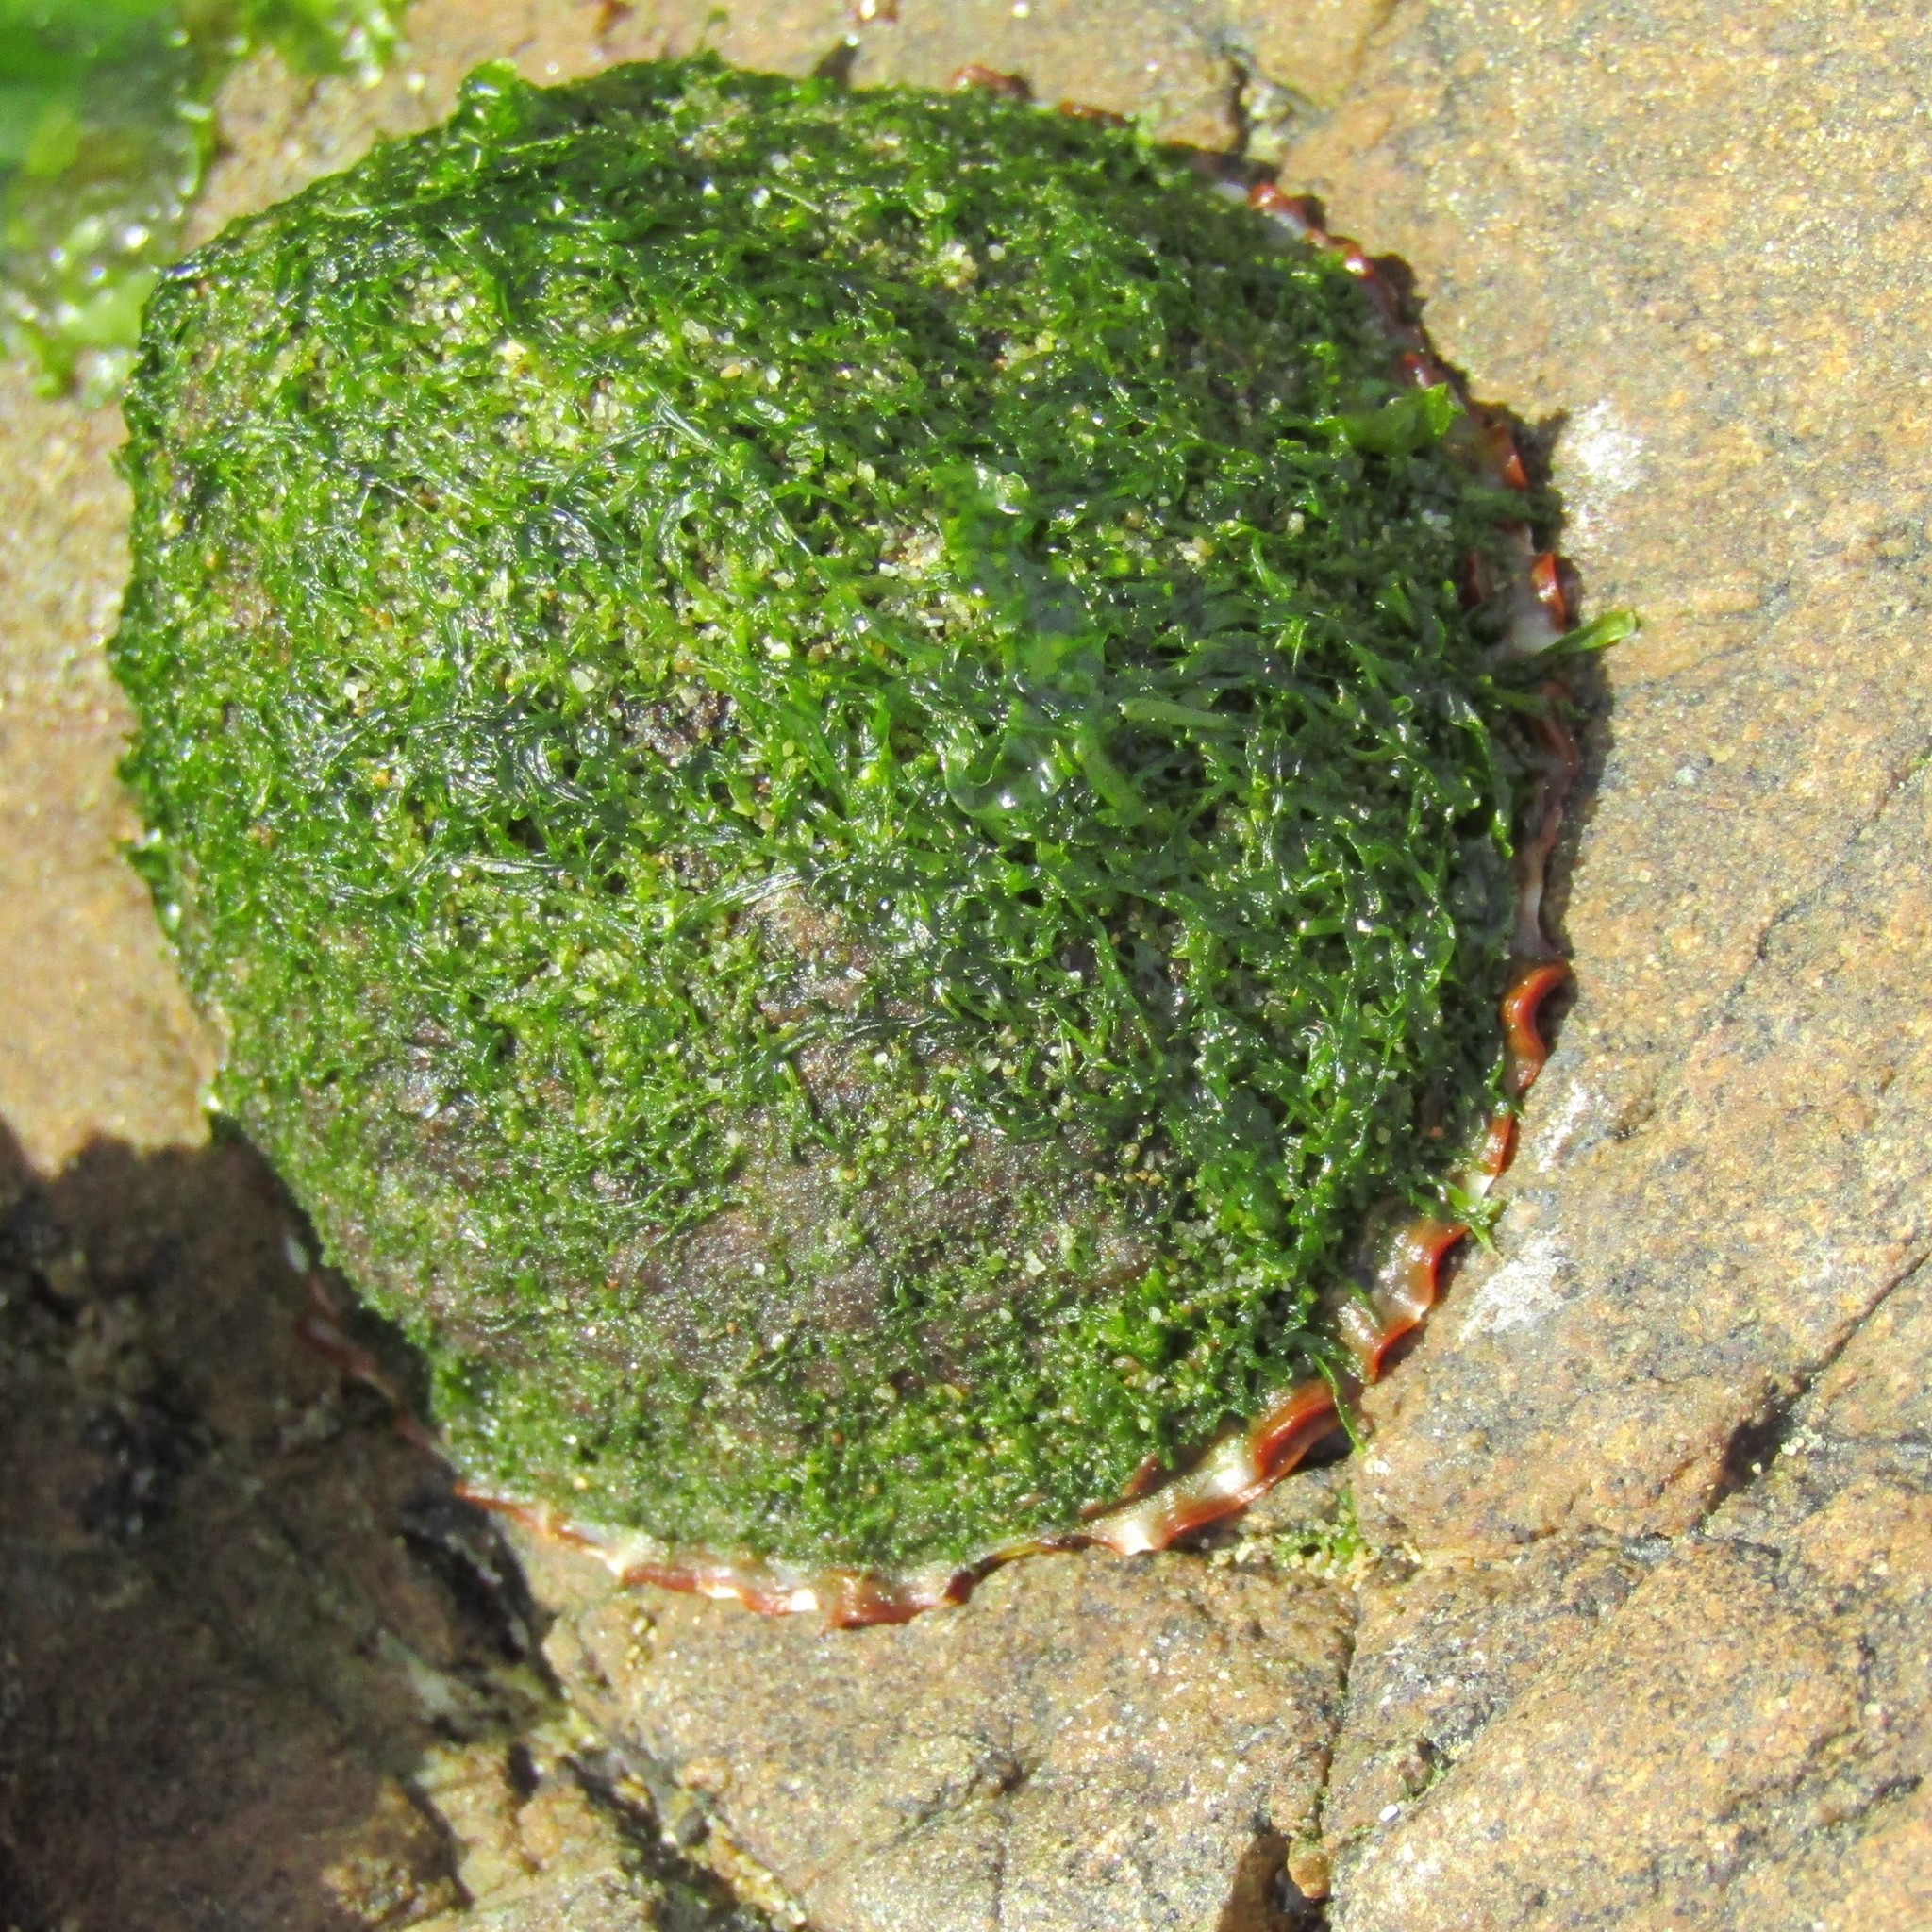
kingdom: Animalia
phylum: Mollusca
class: Gastropoda
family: Nacellidae
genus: Cellana
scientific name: Cellana denticulata
